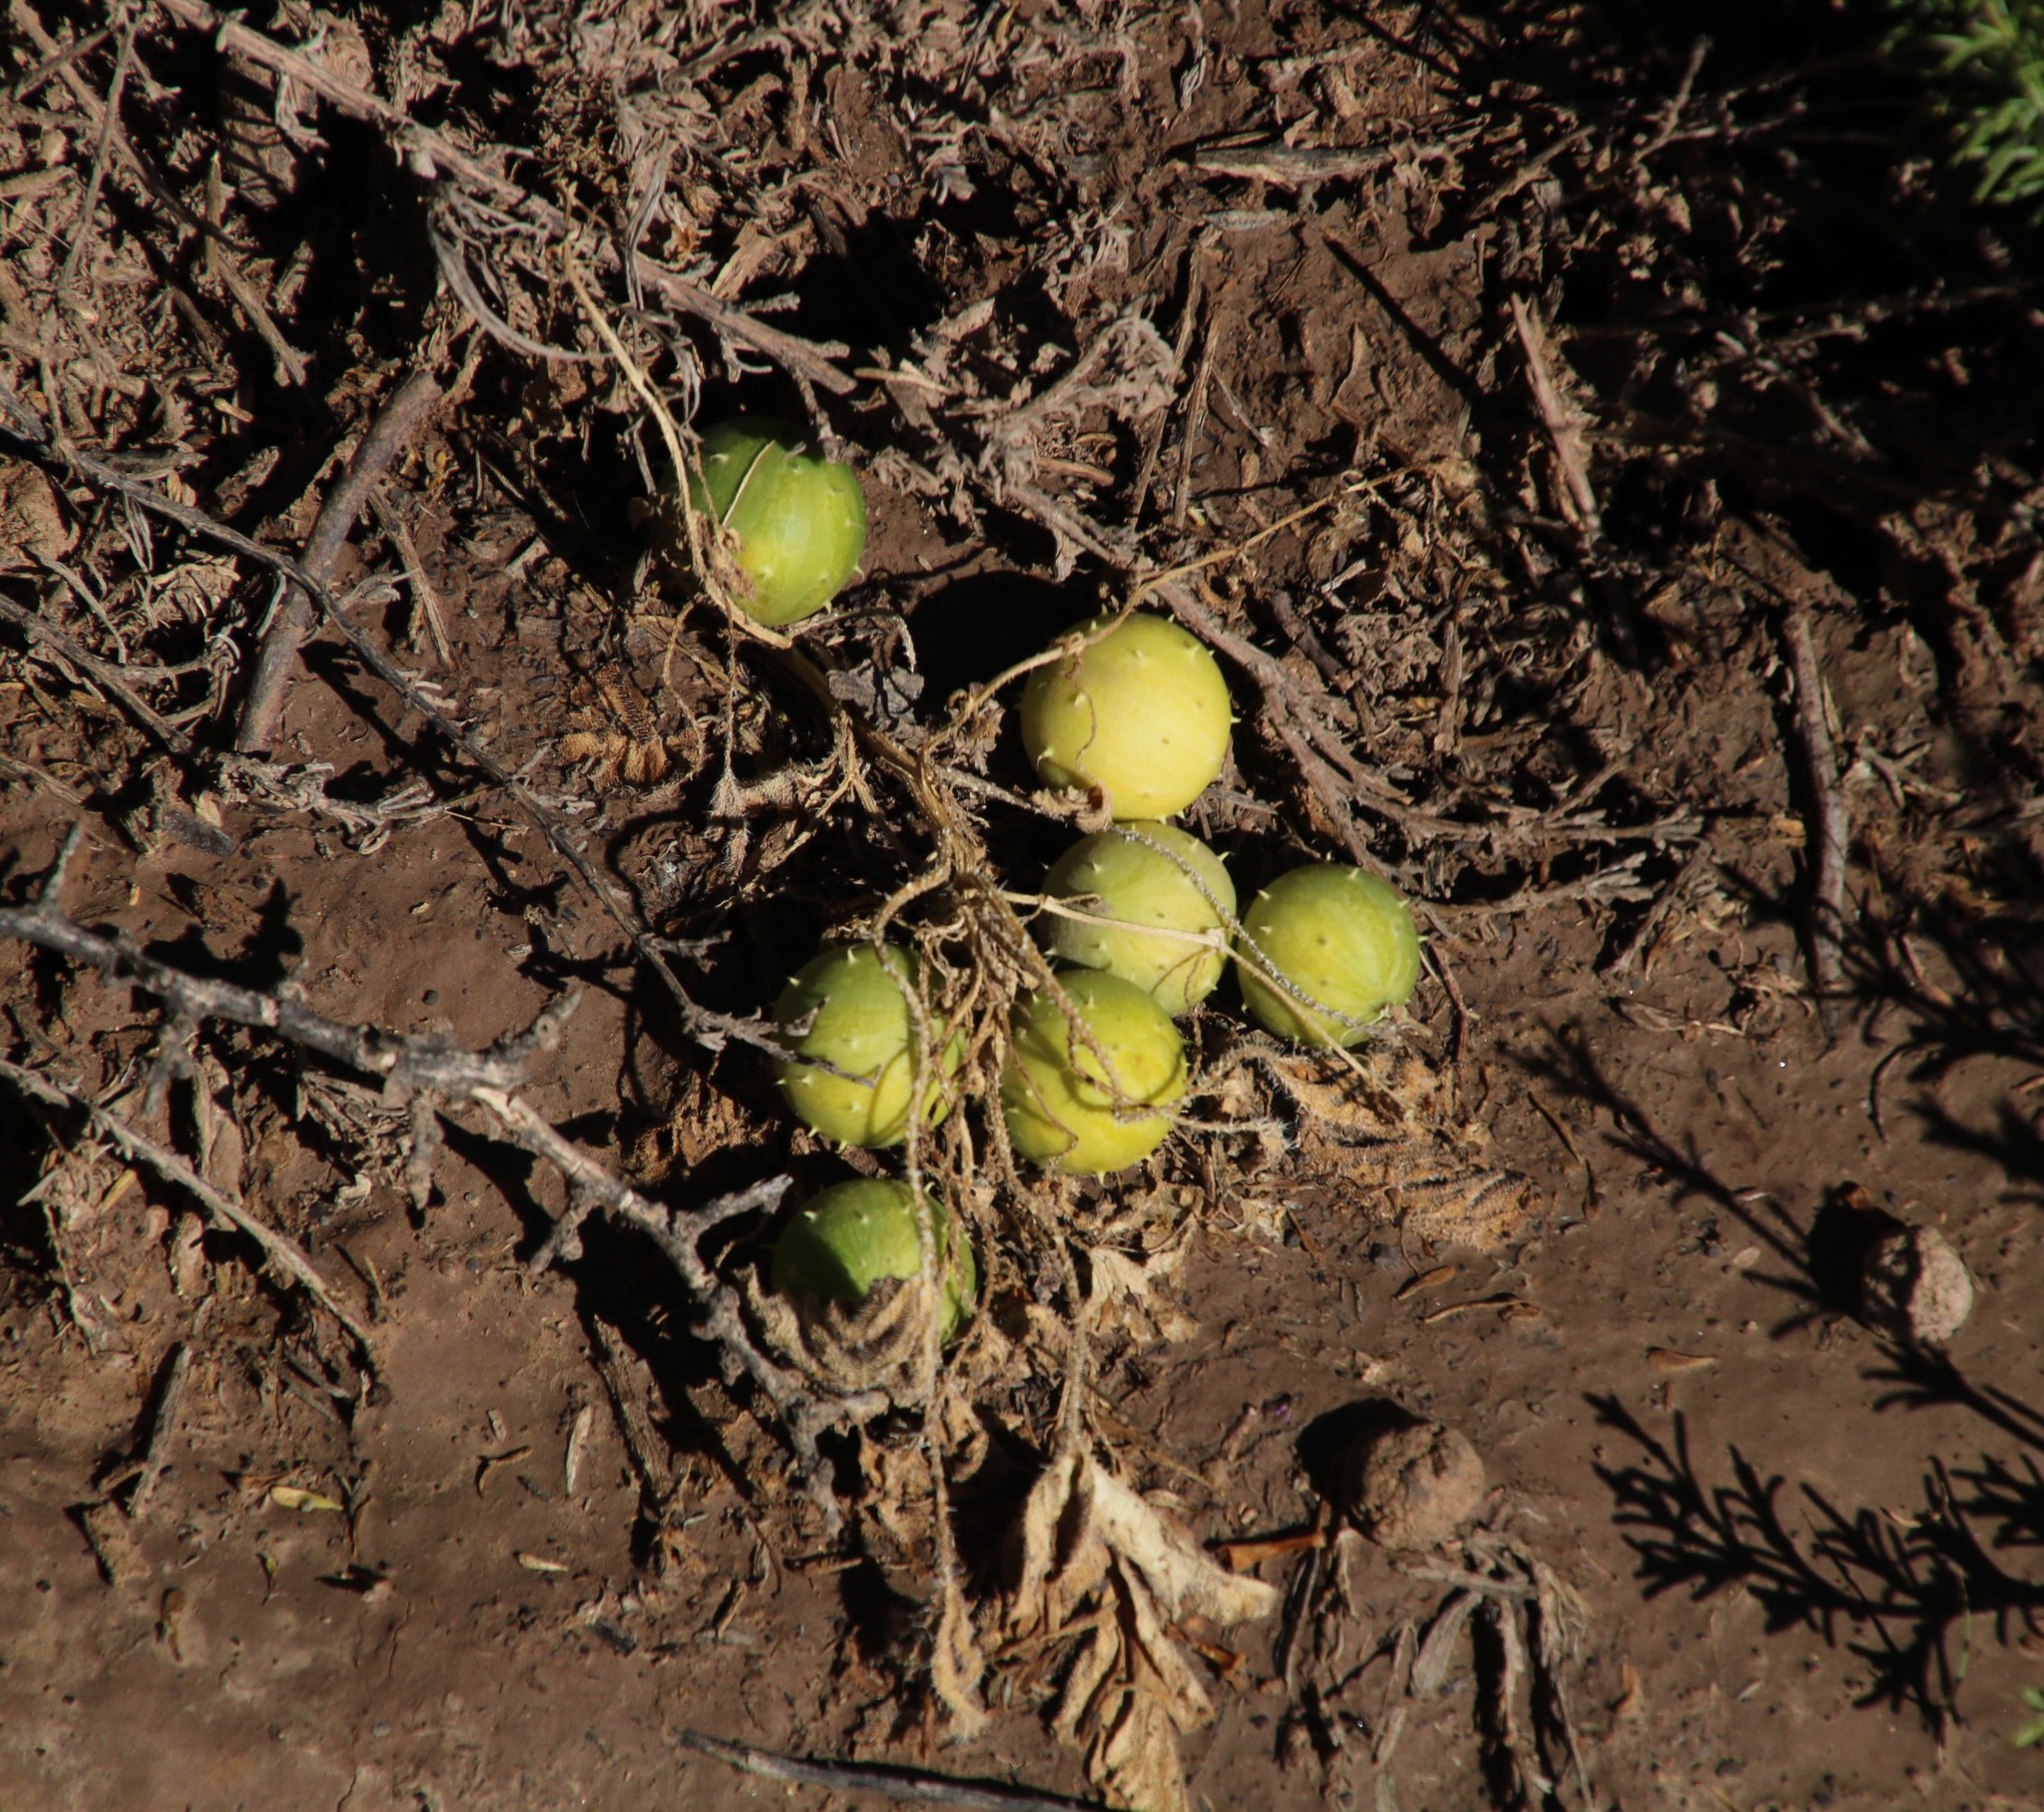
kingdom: Plantae
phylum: Tracheophyta
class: Magnoliopsida
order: Cucurbitales
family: Cucurbitaceae
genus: Cucumis
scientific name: Cucumis myriocarpus
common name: Gooseberry cucumber
